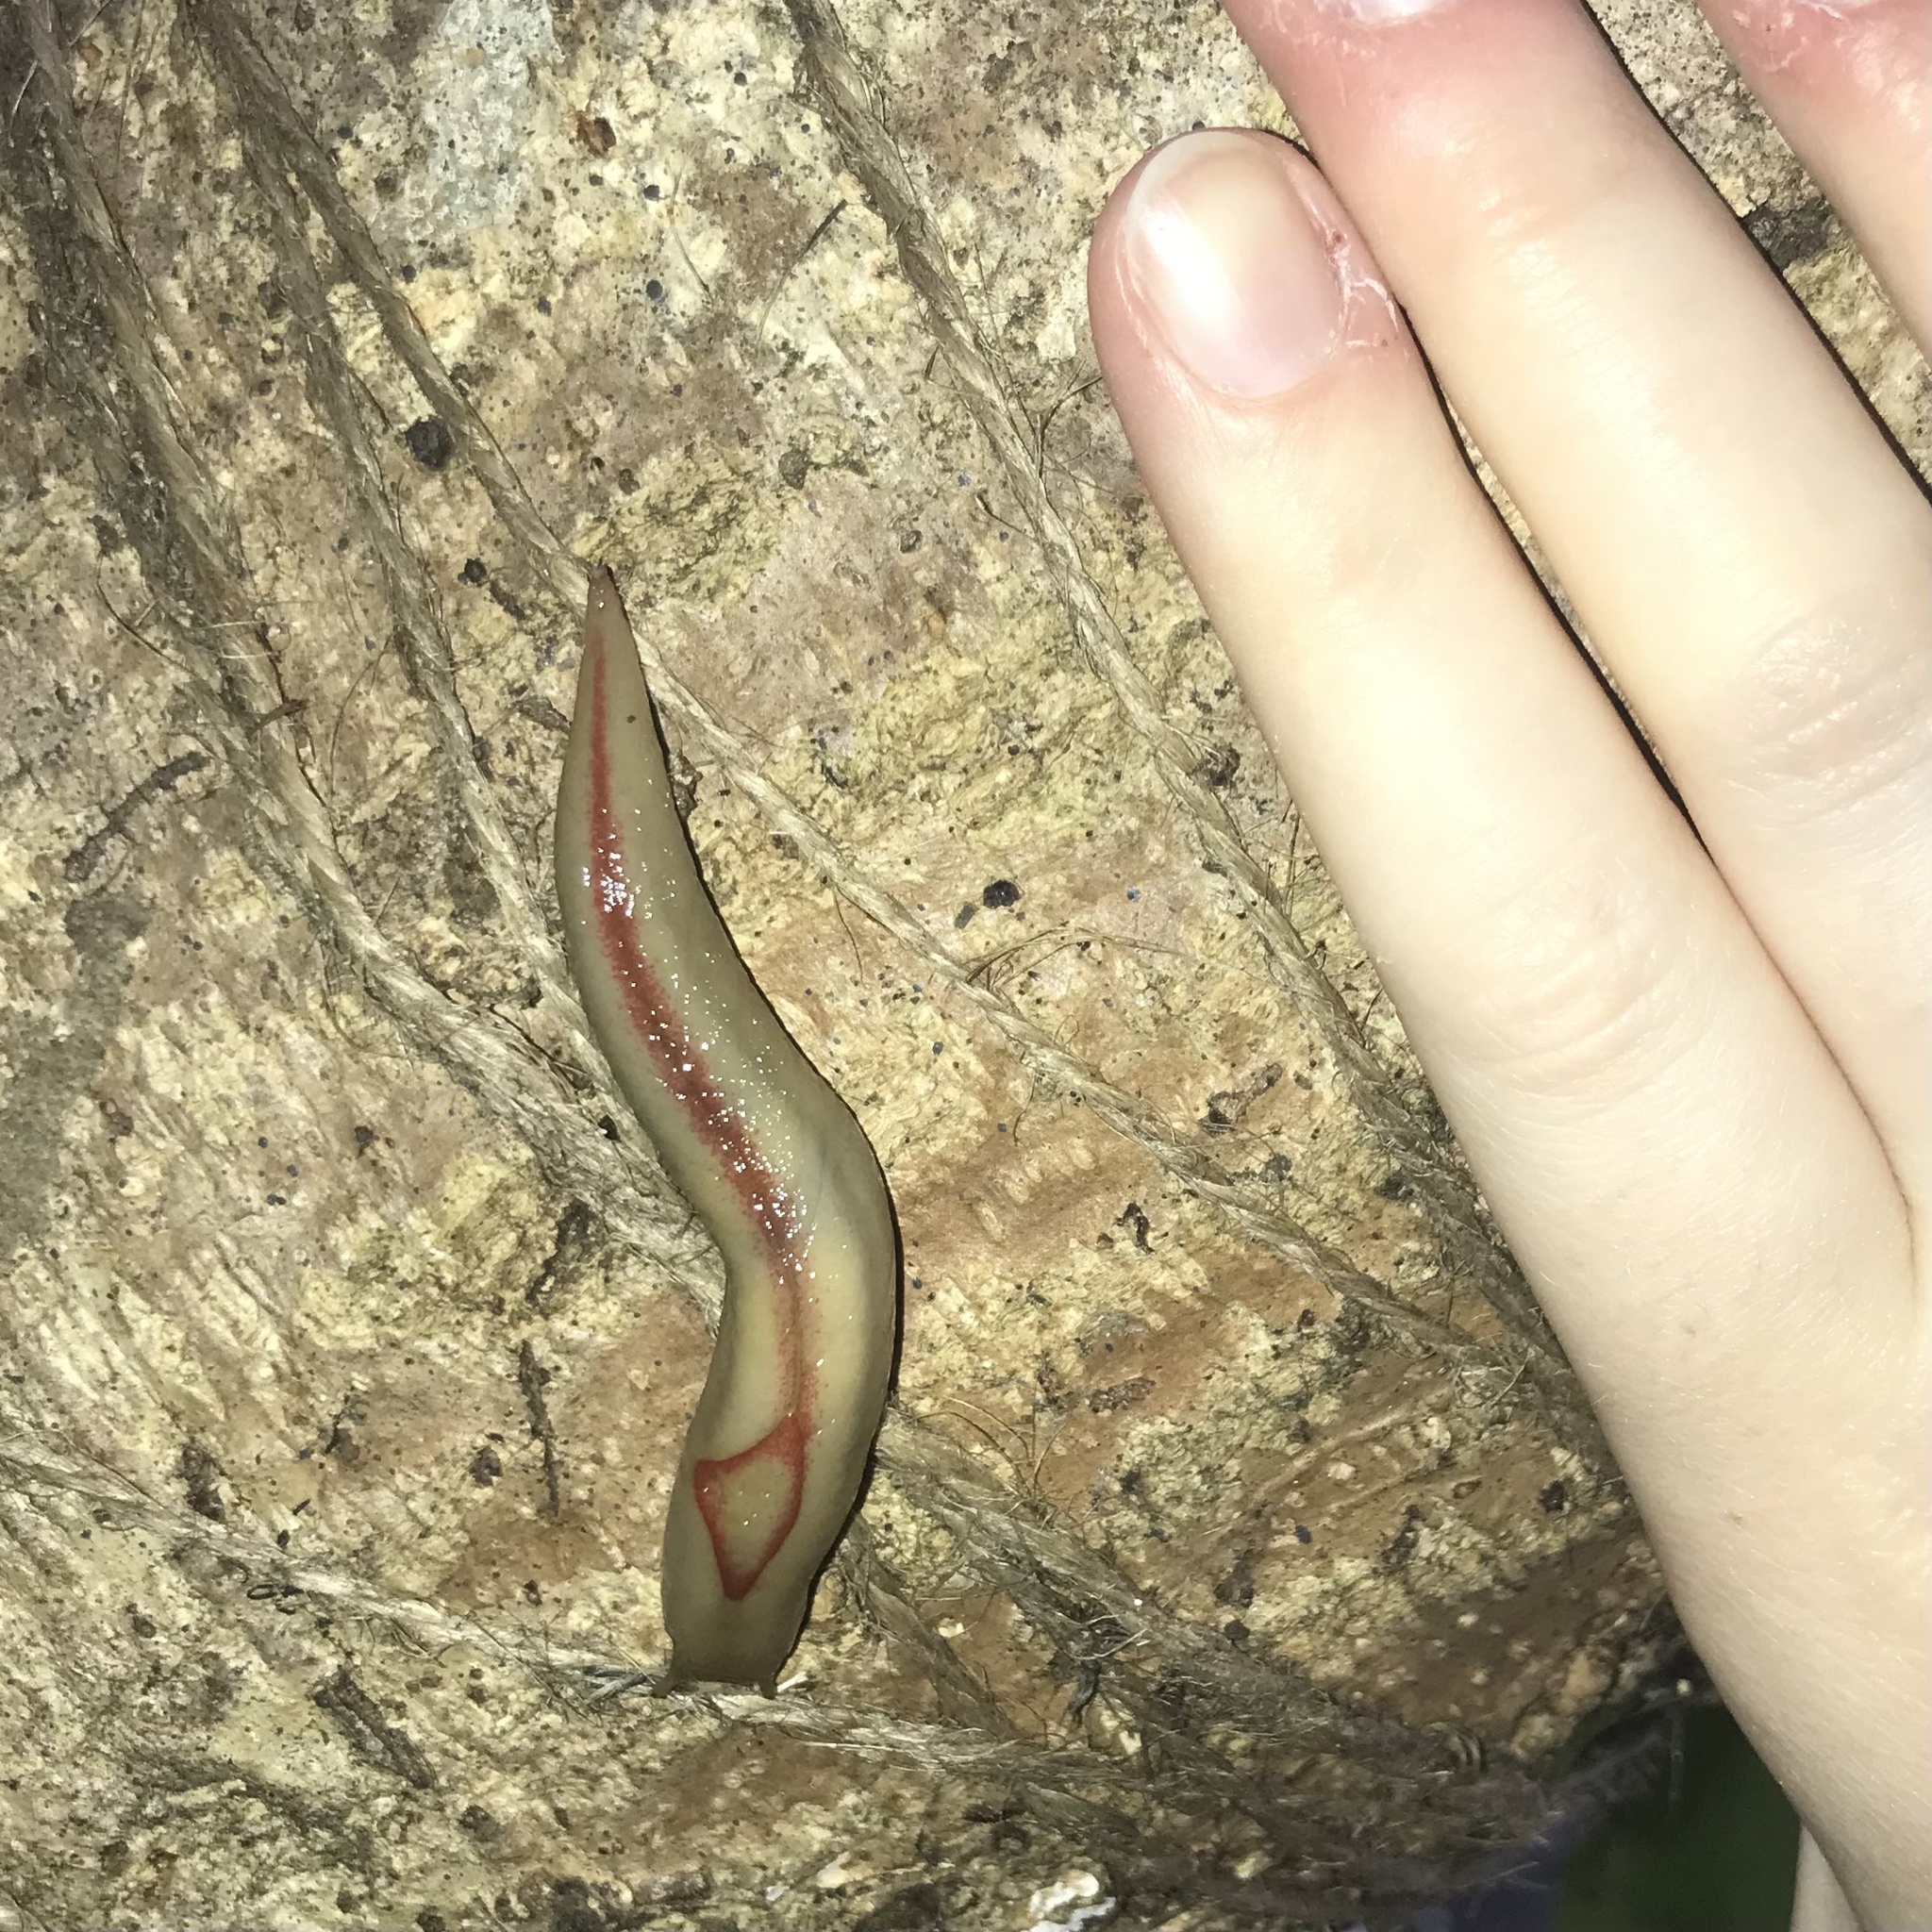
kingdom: Animalia
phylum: Mollusca
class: Gastropoda
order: Stylommatophora
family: Athoracophoridae
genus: Triboniophorus
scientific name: Triboniophorus graeffei
